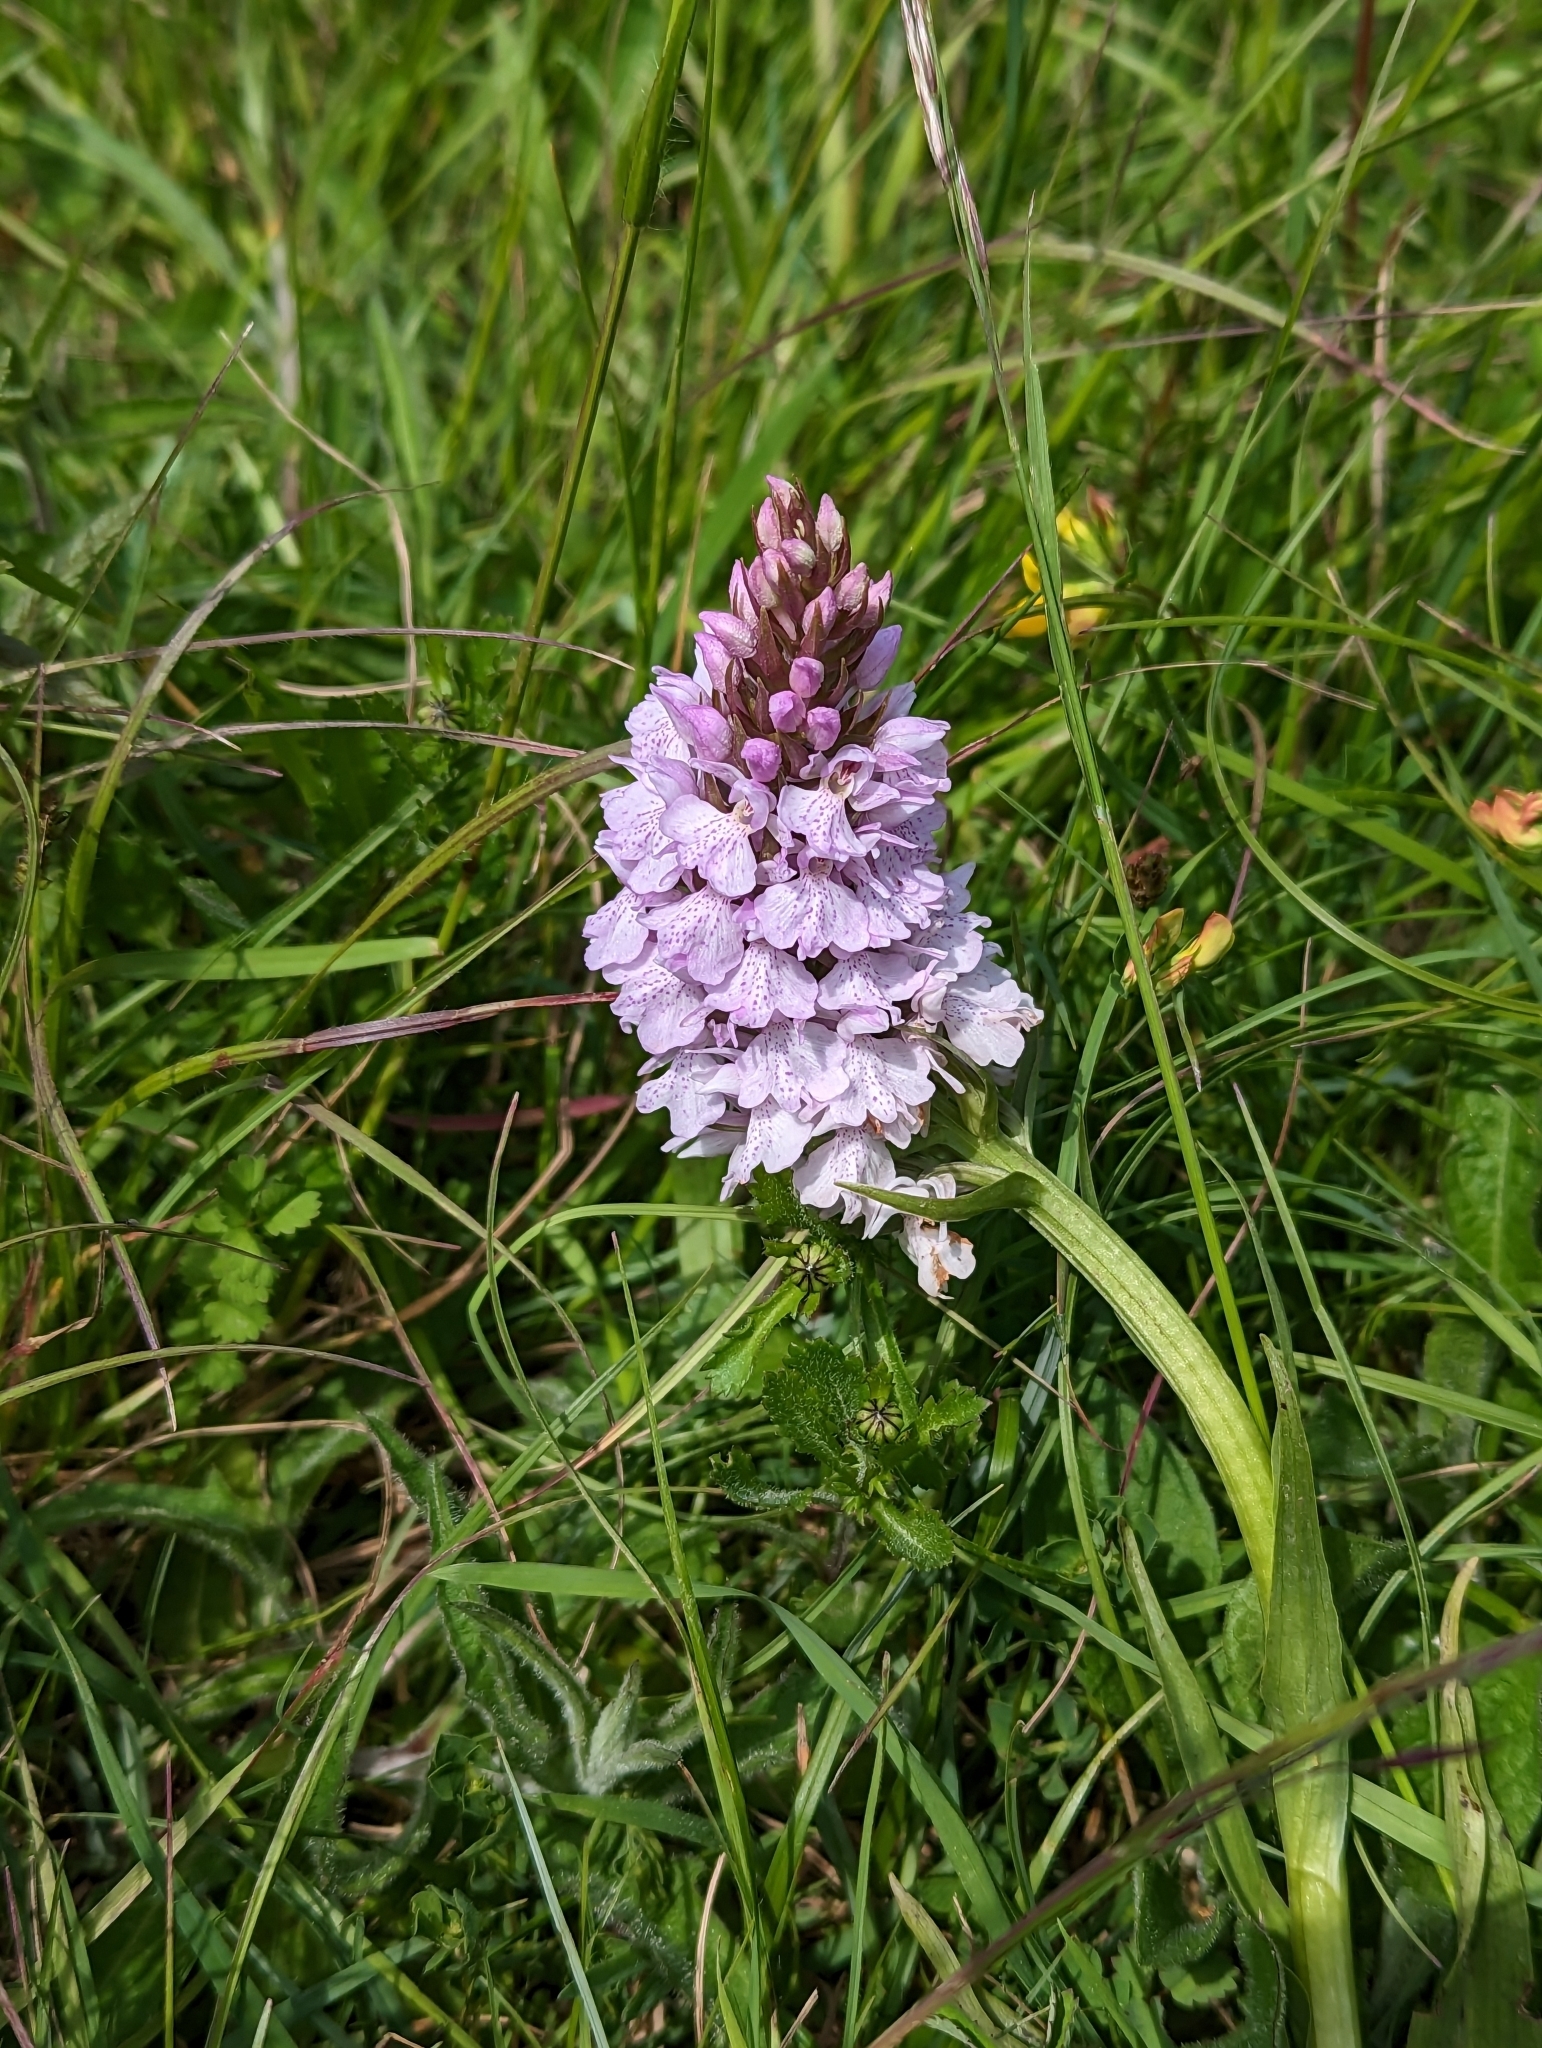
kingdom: Plantae
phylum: Tracheophyta
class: Liliopsida
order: Asparagales
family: Orchidaceae
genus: Dactylorhiza
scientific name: Dactylorhiza maculata
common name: Heath spotted-orchid
